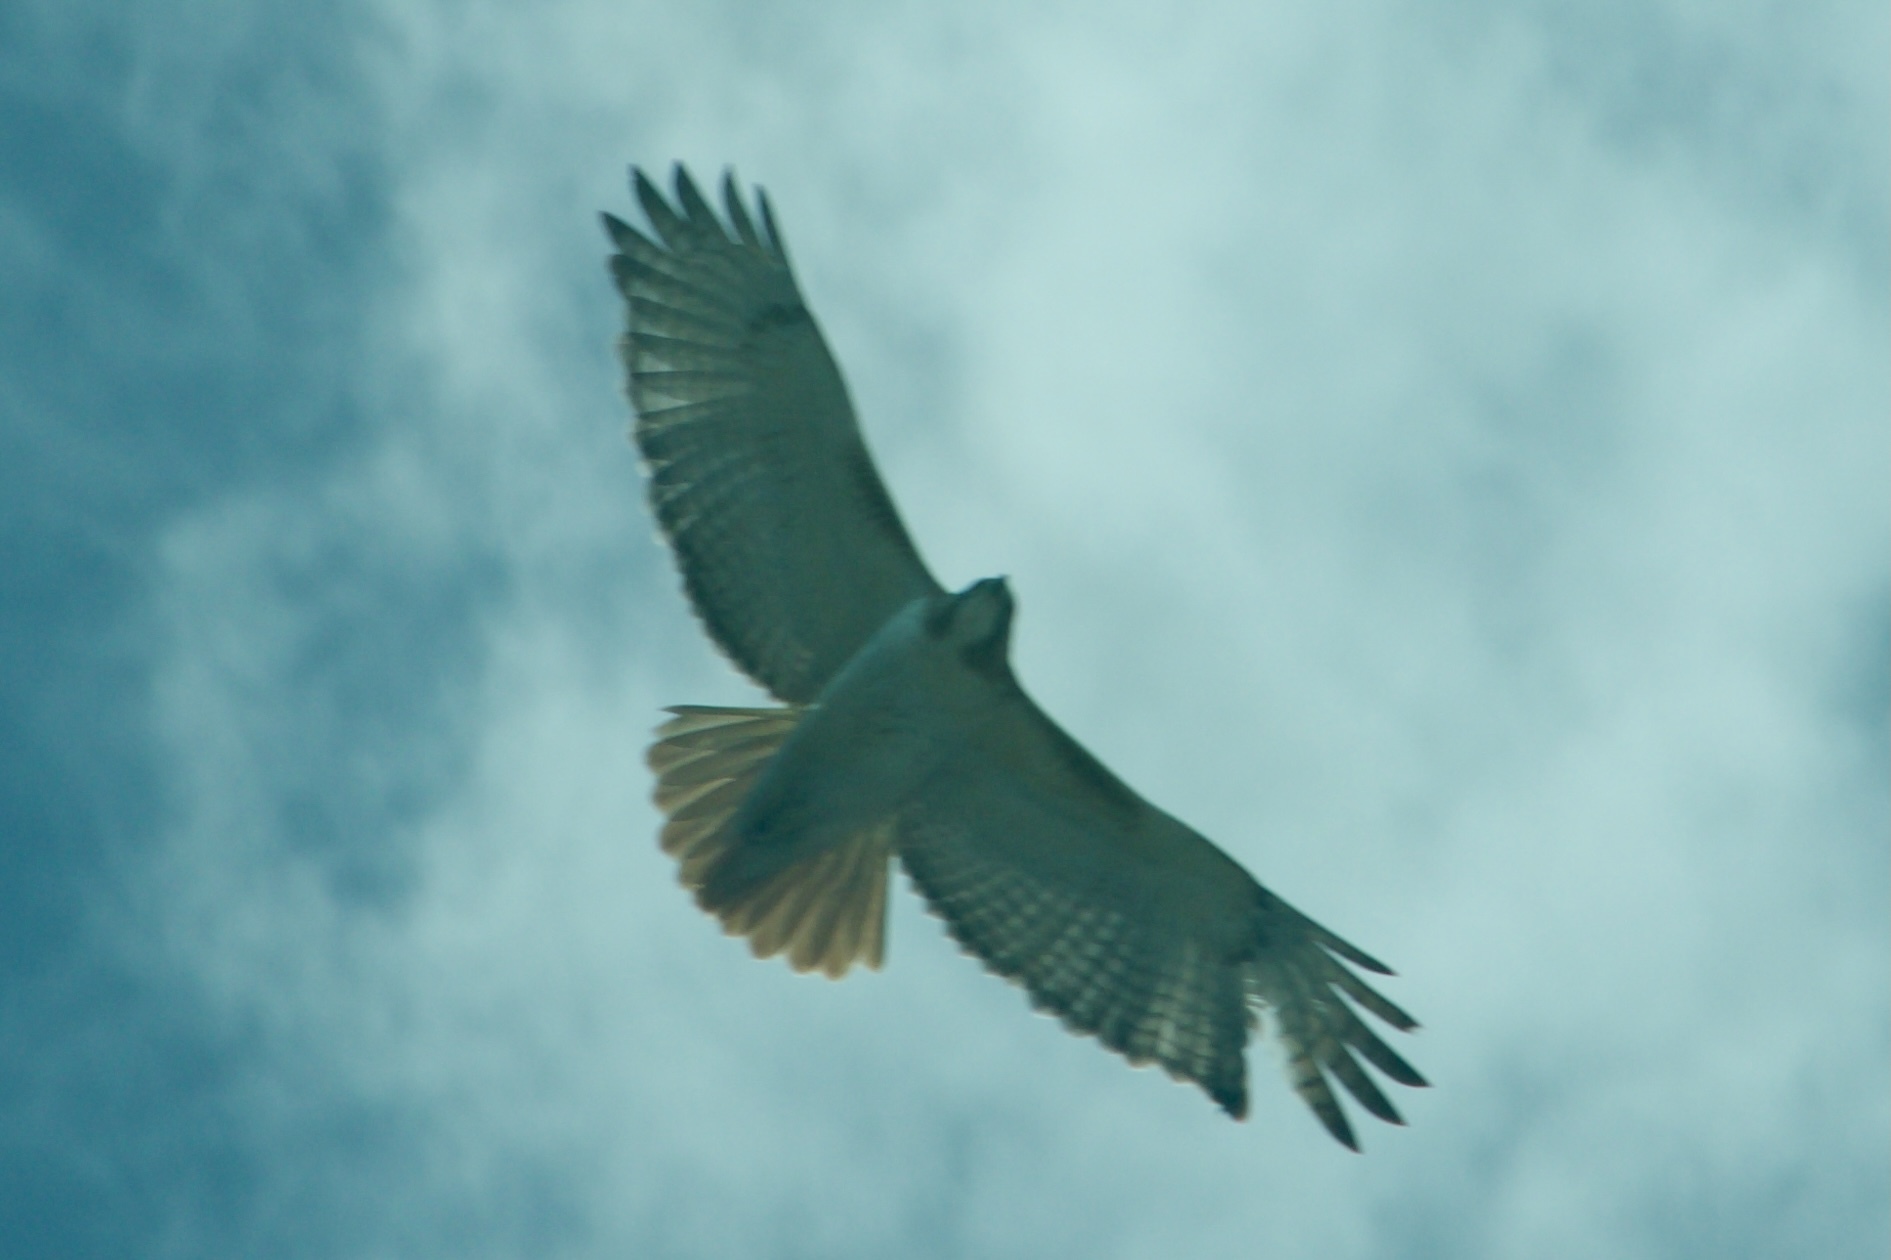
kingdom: Animalia
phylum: Chordata
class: Aves
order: Accipitriformes
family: Accipitridae
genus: Buteo
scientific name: Buteo jamaicensis
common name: Red-tailed hawk
